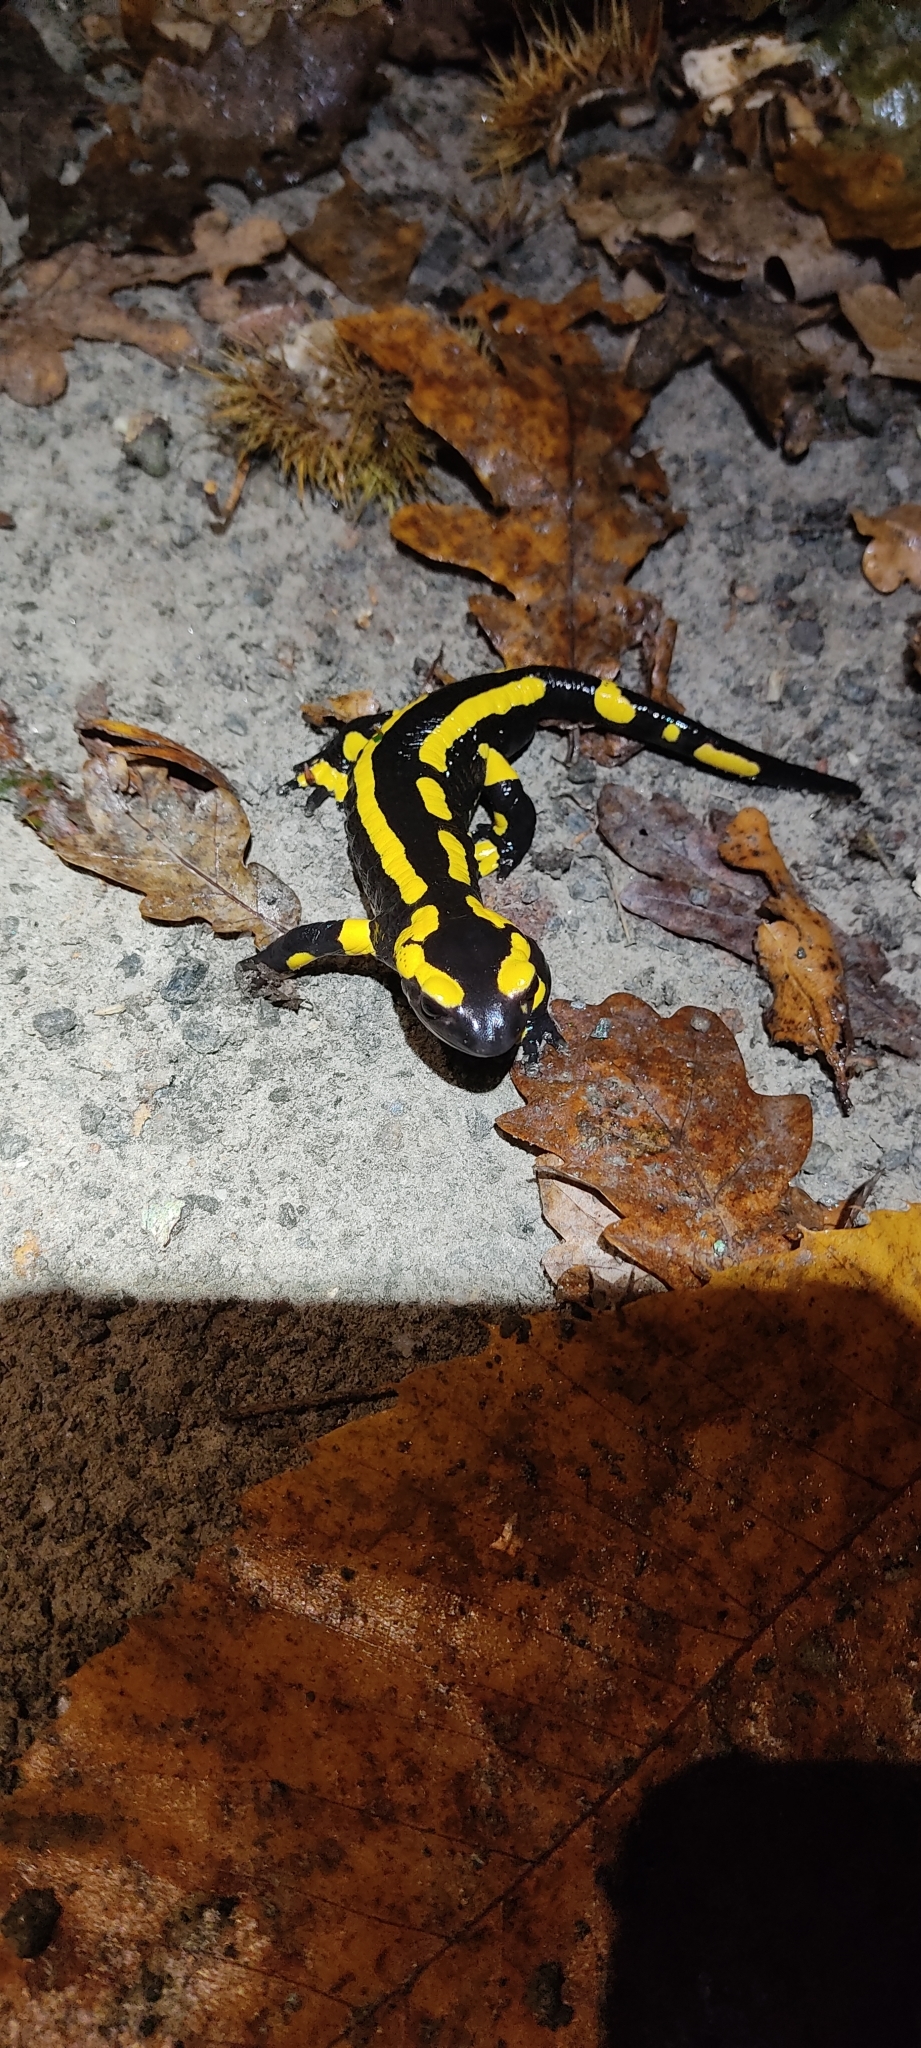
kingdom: Animalia
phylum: Chordata
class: Amphibia
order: Caudata
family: Salamandridae
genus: Salamandra
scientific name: Salamandra salamandra
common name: Fire salamander
